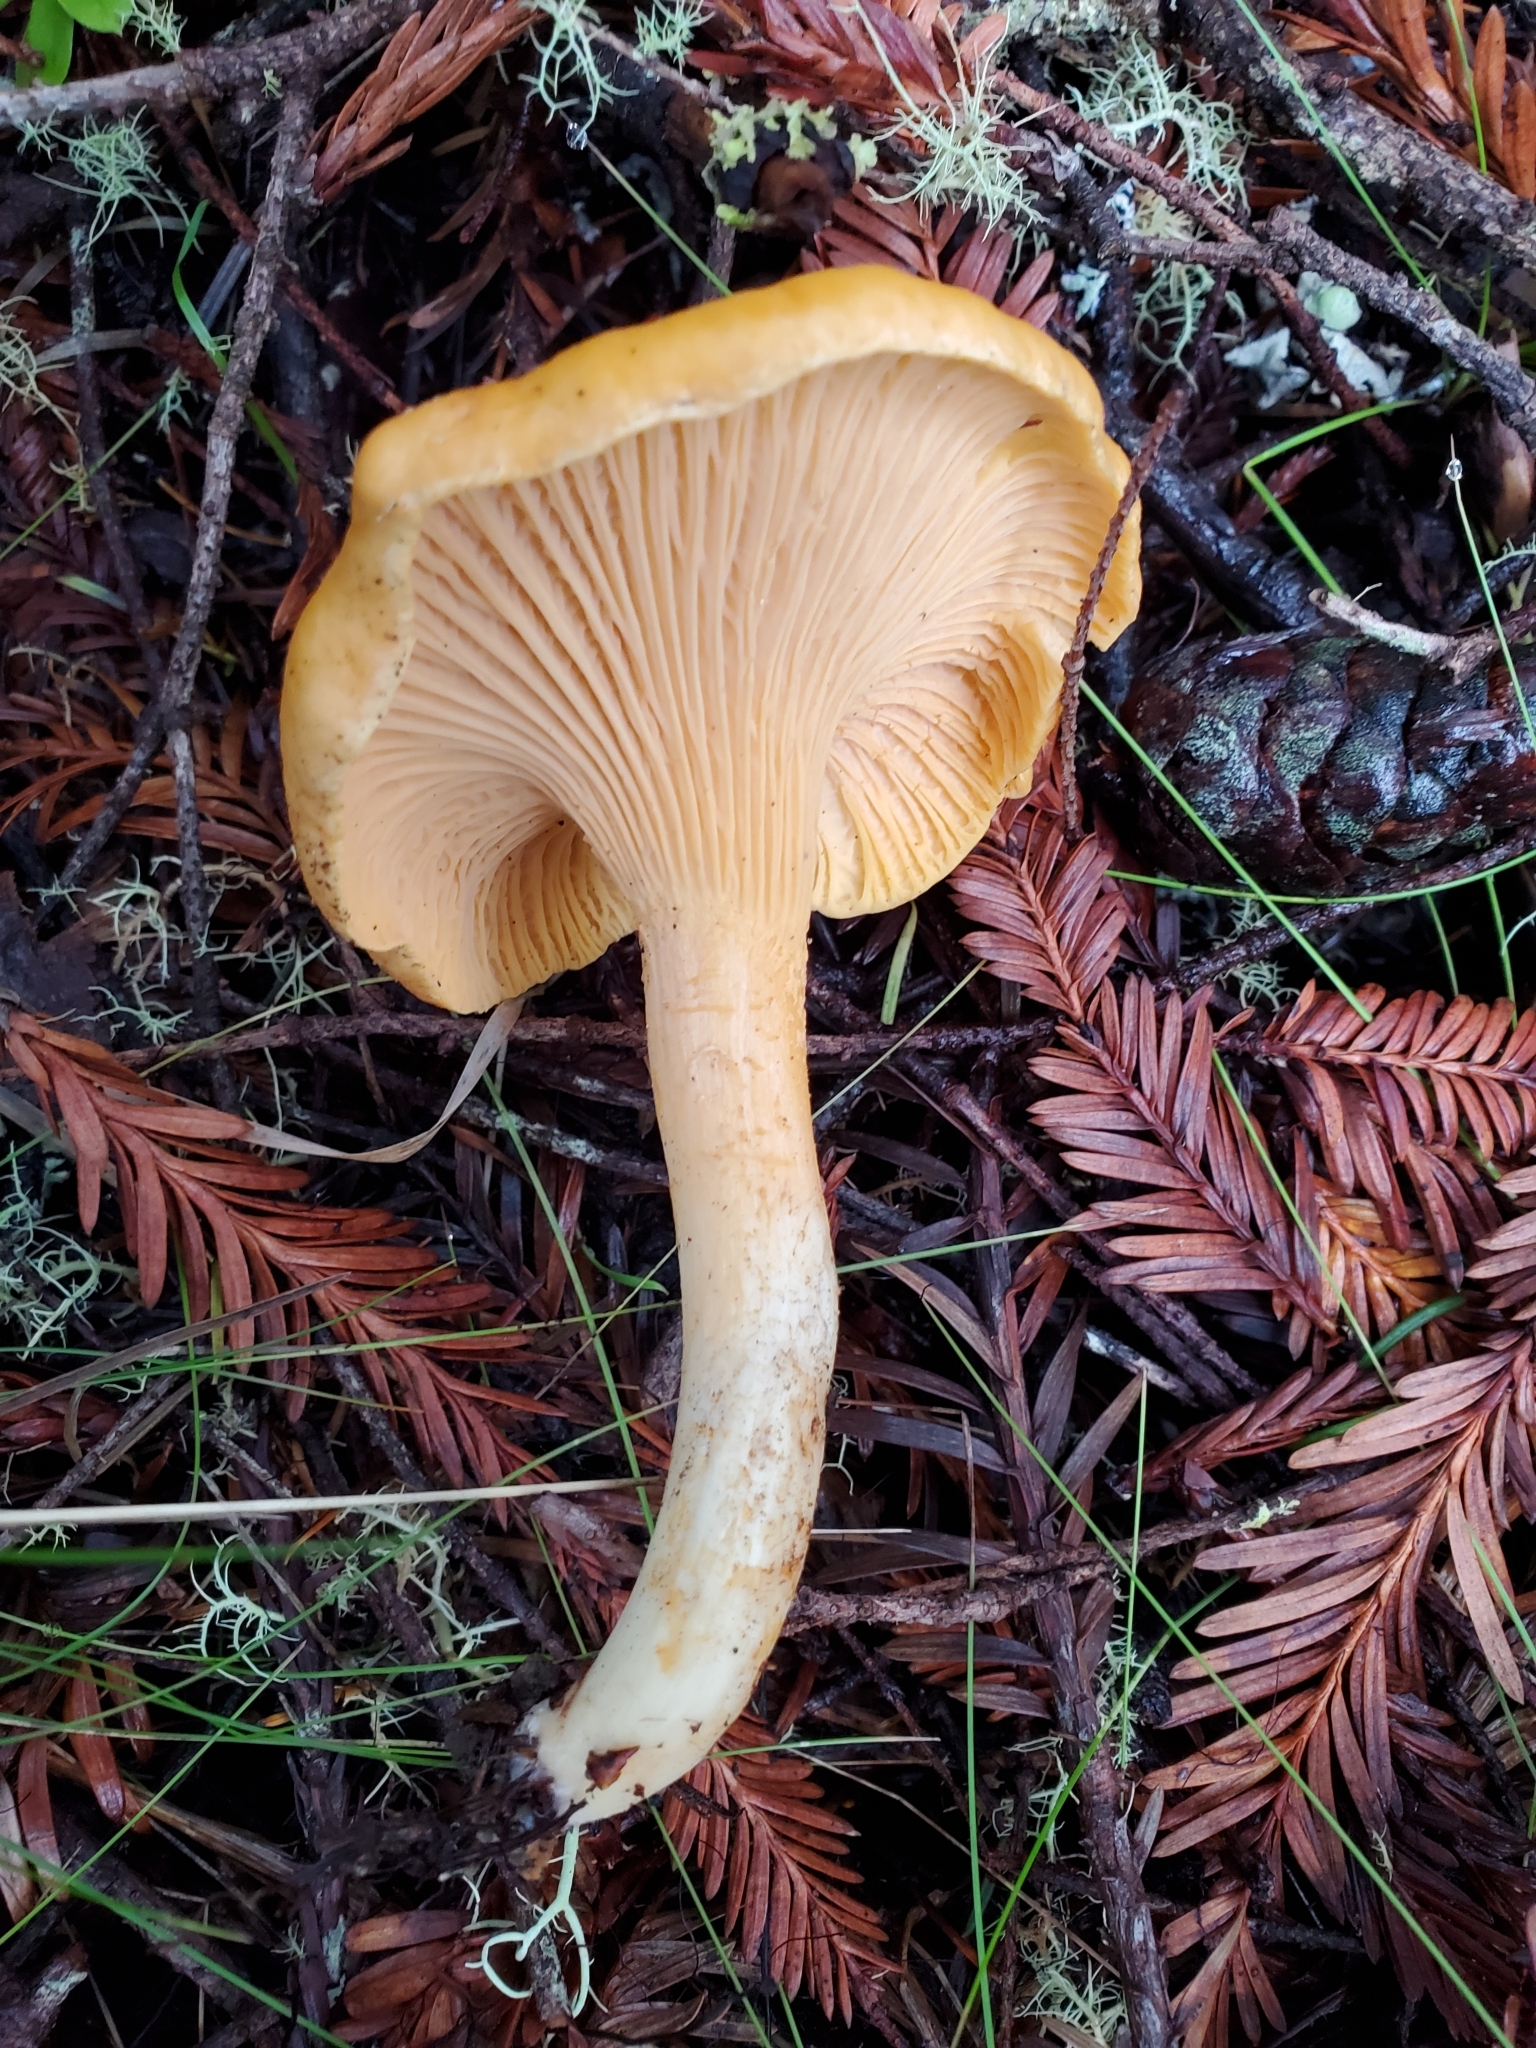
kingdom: Fungi
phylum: Basidiomycota
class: Agaricomycetes
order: Cantharellales
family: Hydnaceae
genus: Cantharellus
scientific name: Cantharellus formosus
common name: Pacific golden chanterelle
